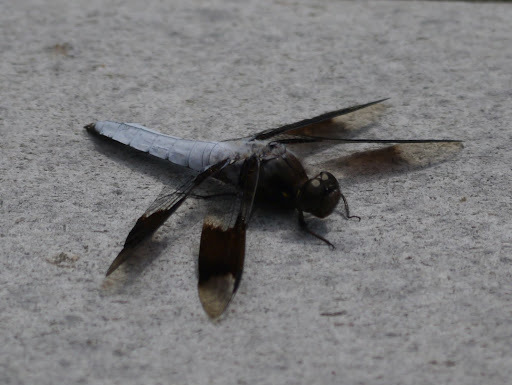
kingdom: Animalia
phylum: Arthropoda
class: Insecta
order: Odonata
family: Libellulidae
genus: Plathemis
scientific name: Plathemis lydia
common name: Common whitetail
